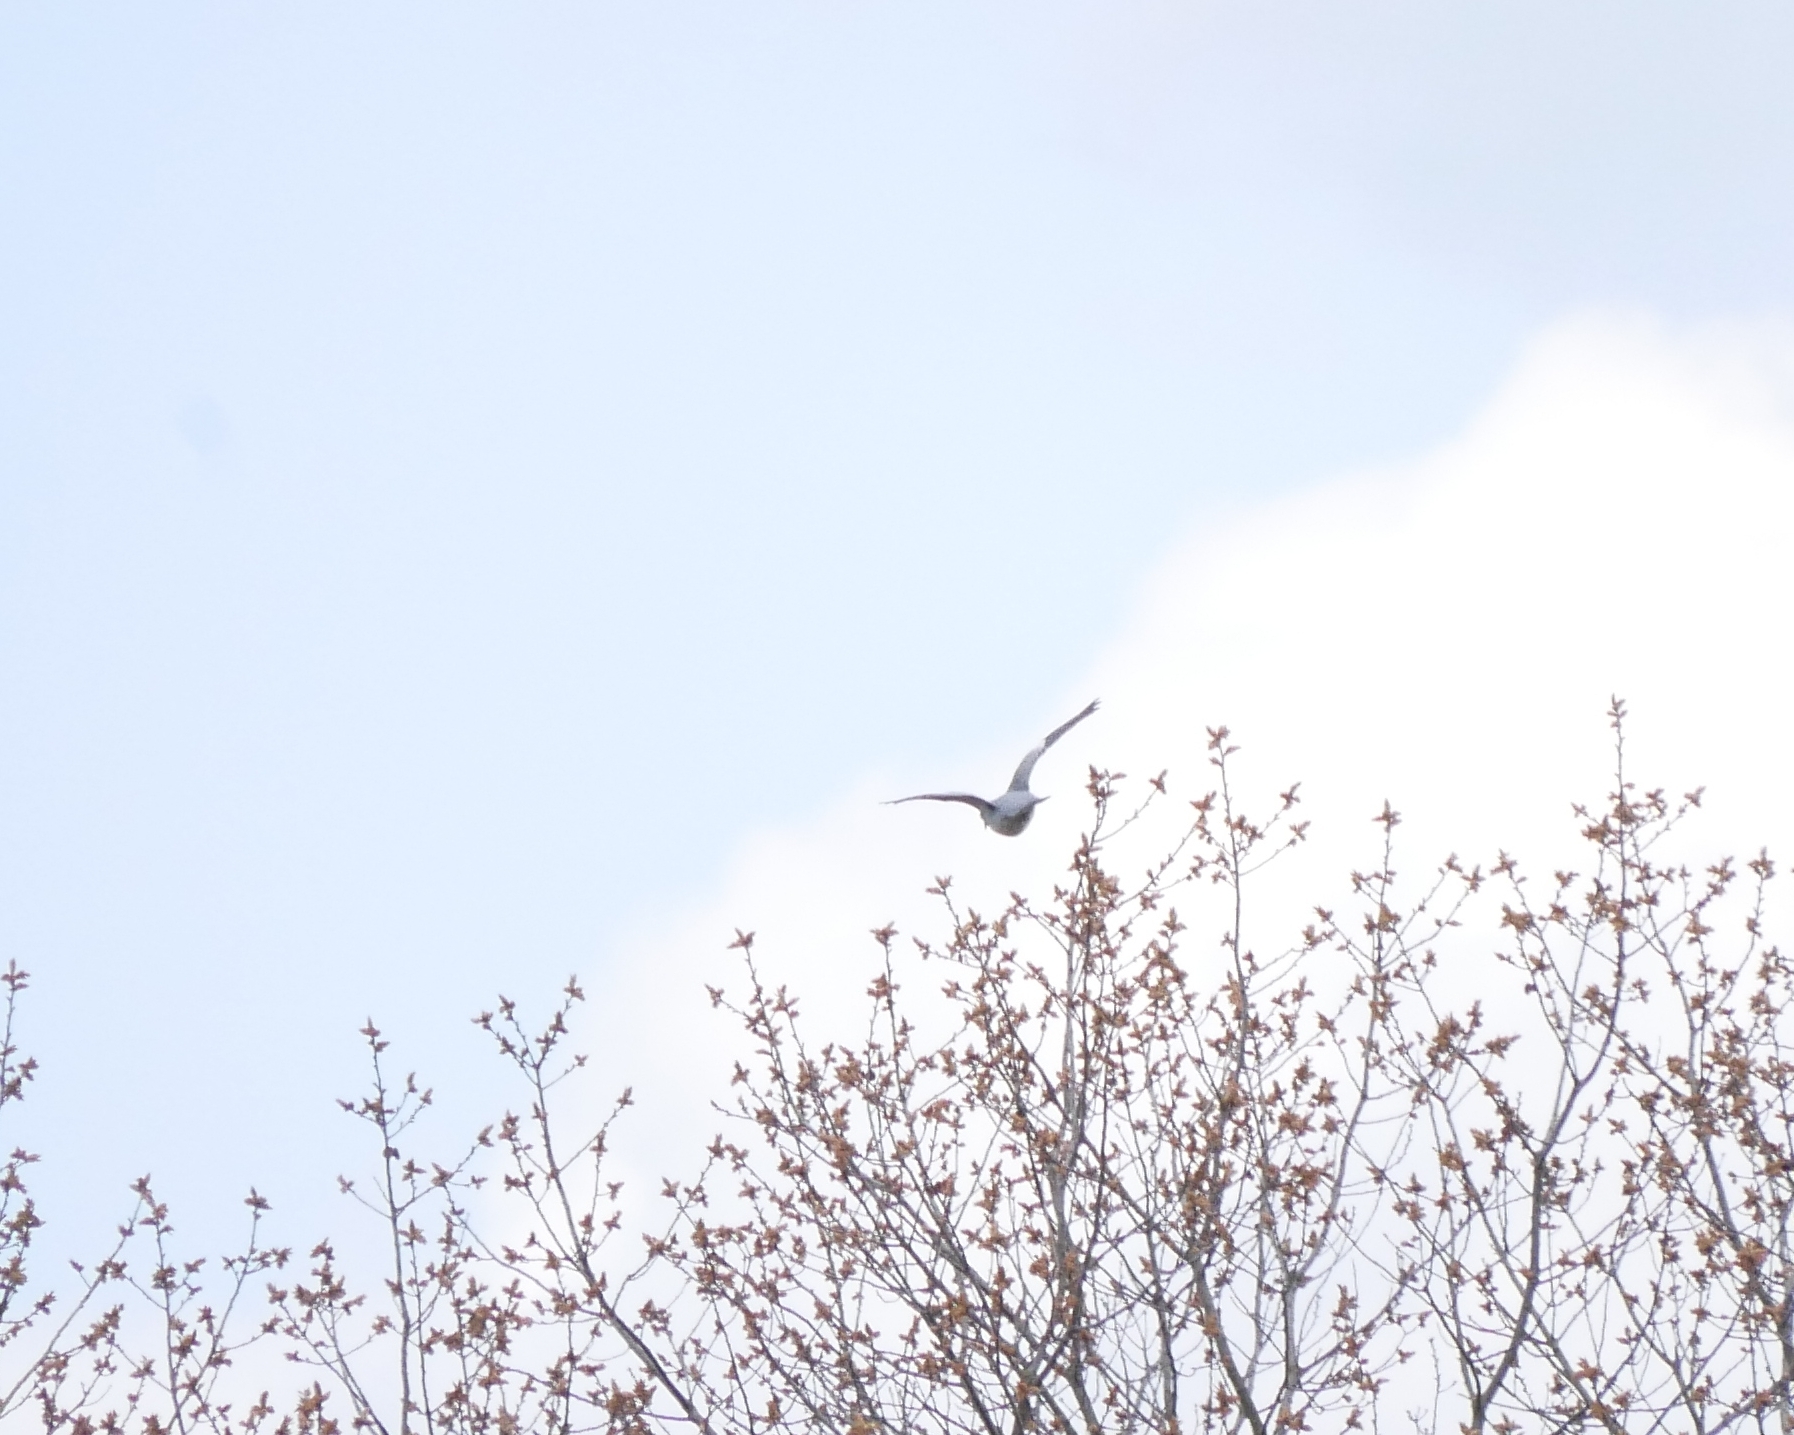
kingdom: Animalia
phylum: Chordata
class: Aves
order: Columbiformes
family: Columbidae
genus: Columba
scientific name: Columba palumbus
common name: Common wood pigeon
